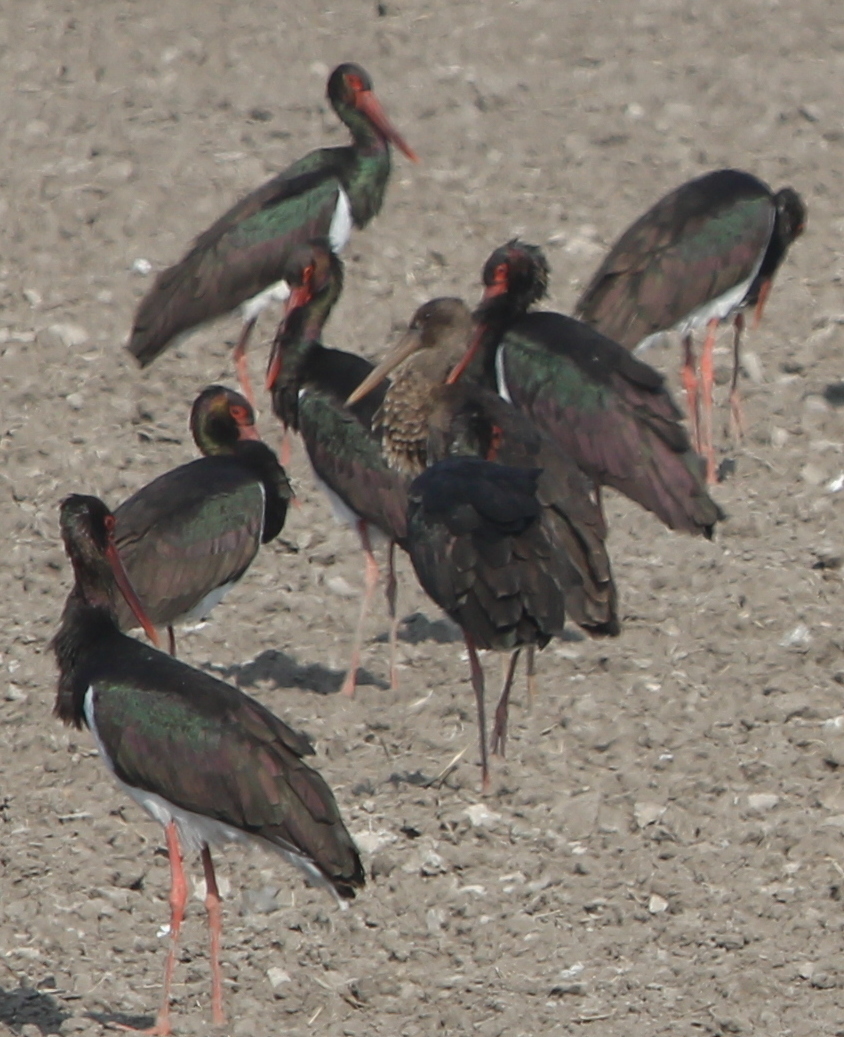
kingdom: Animalia
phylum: Chordata
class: Aves
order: Ciconiiformes
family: Ciconiidae
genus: Ciconia
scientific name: Ciconia nigra
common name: Black stork
